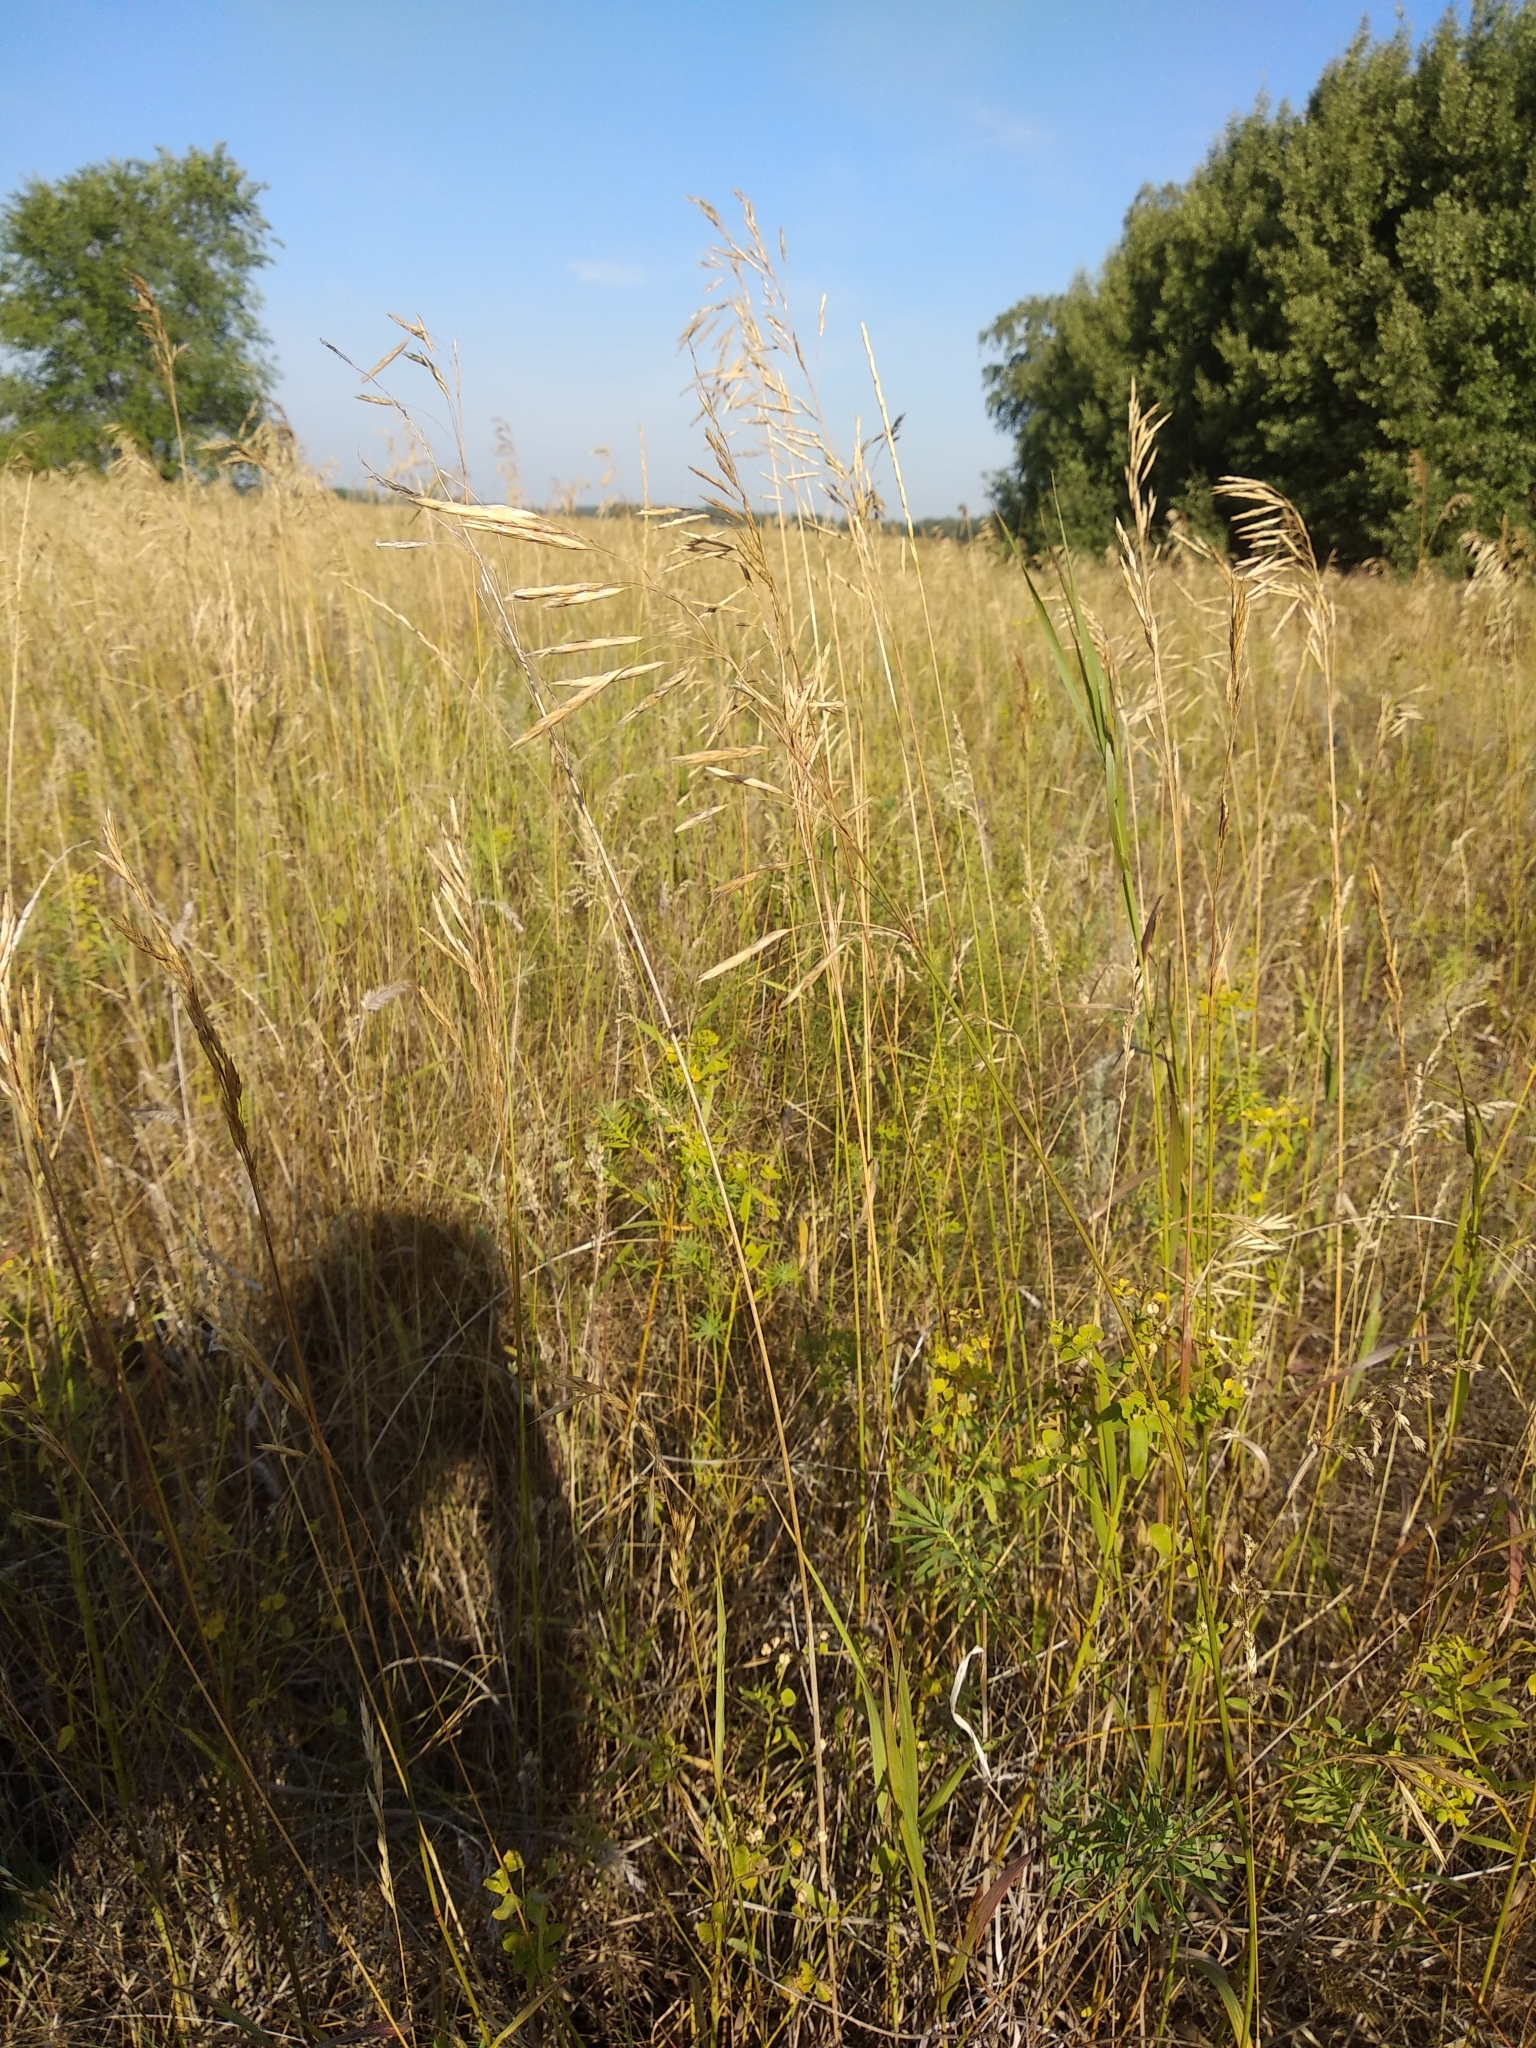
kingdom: Plantae
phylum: Tracheophyta
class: Liliopsida
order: Poales
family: Poaceae
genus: Bromus
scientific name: Bromus inermis
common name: Smooth brome
